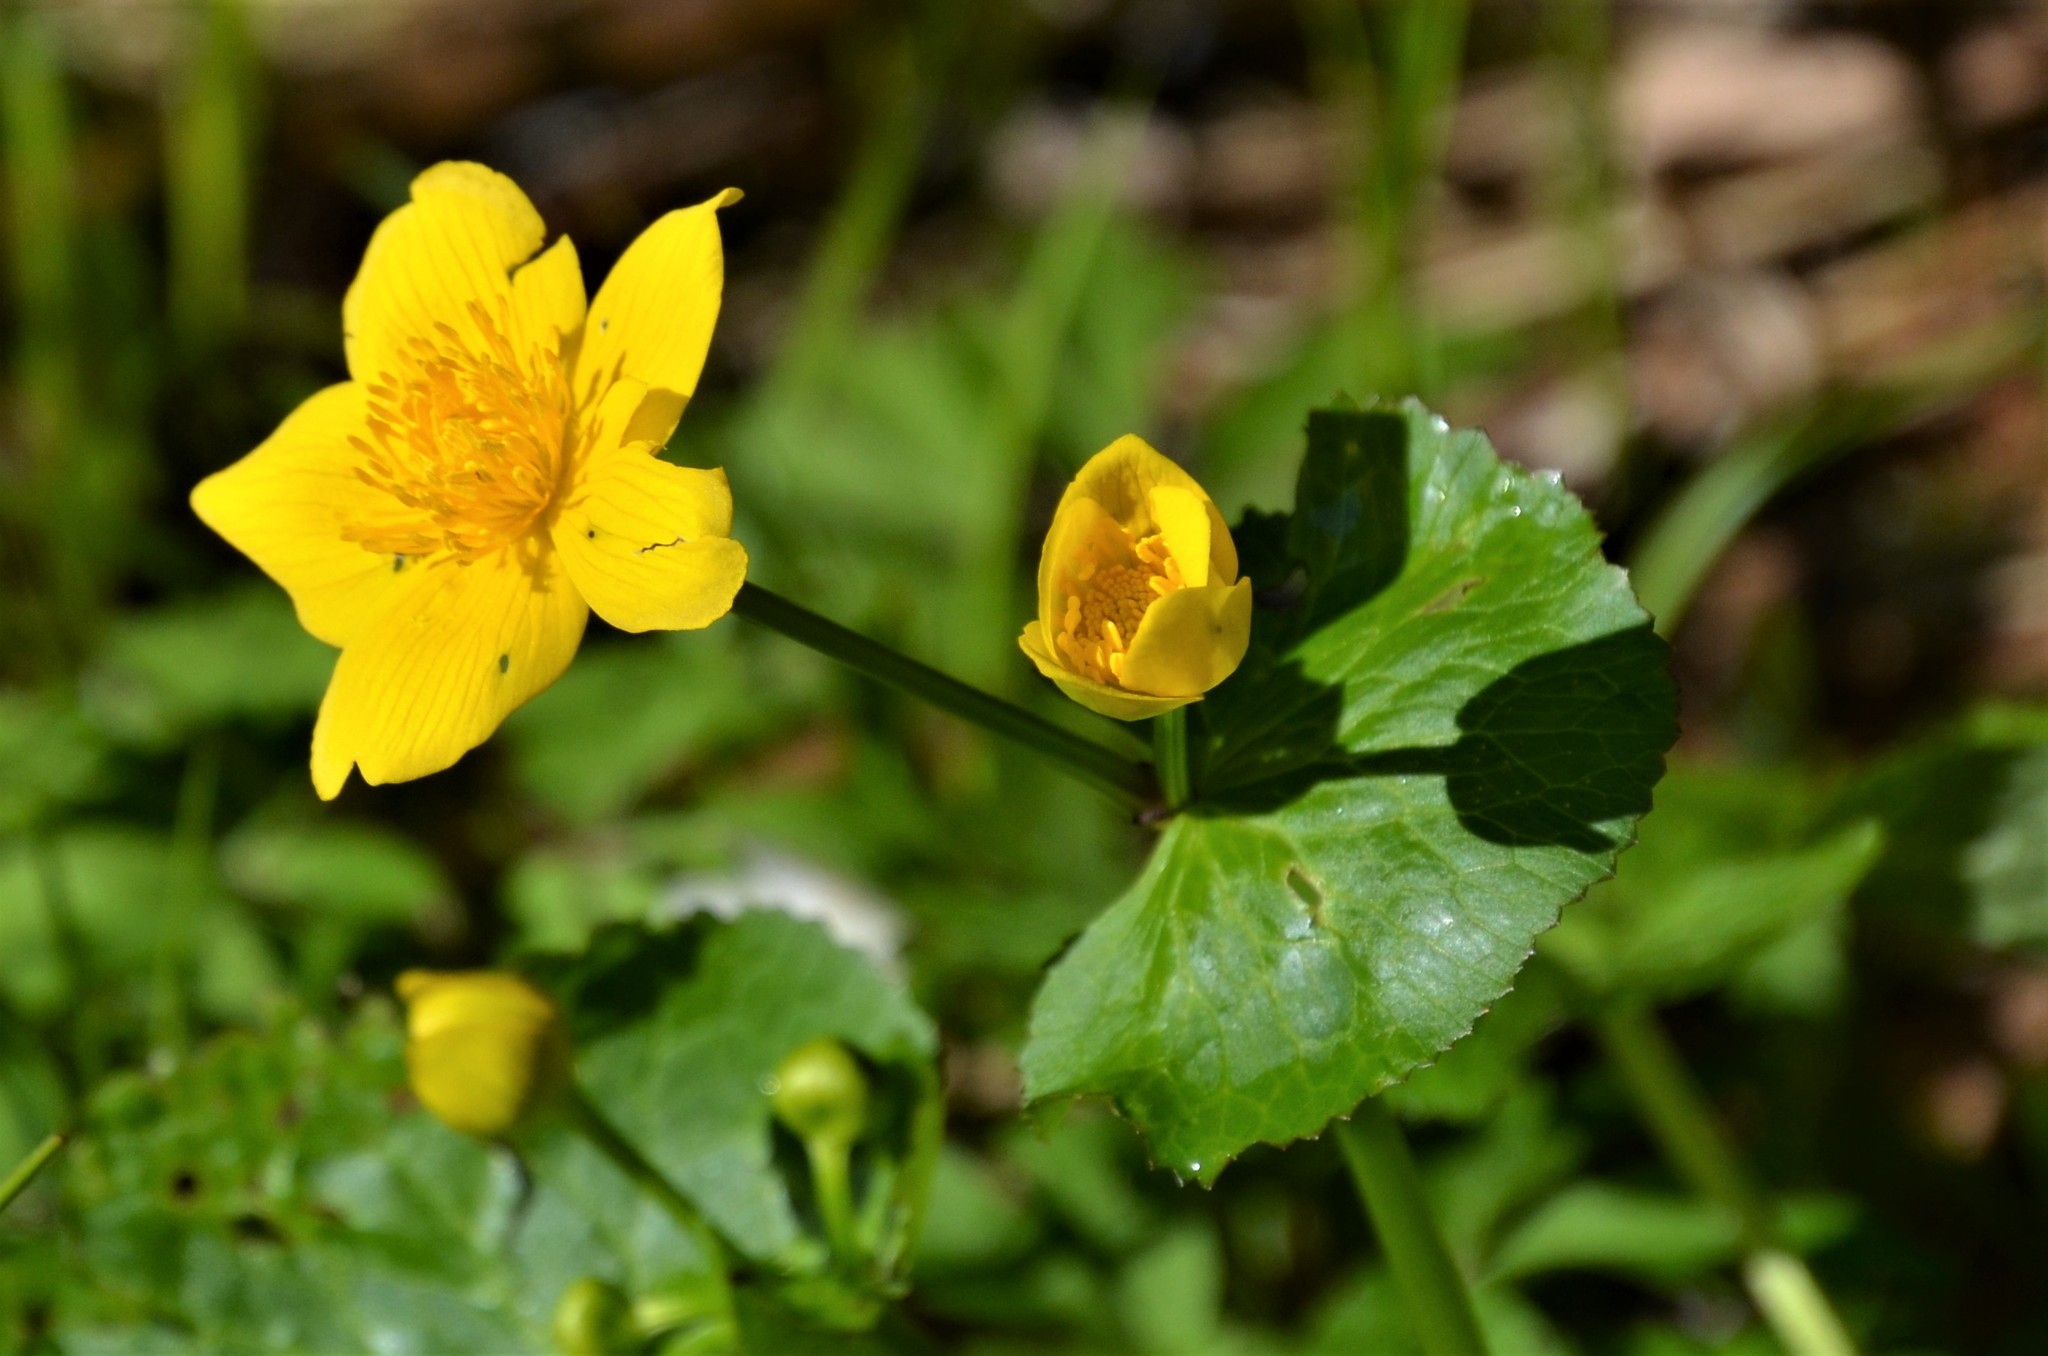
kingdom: Plantae
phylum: Tracheophyta
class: Magnoliopsida
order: Ranunculales
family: Ranunculaceae
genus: Caltha
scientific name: Caltha palustris
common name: Marsh marigold
